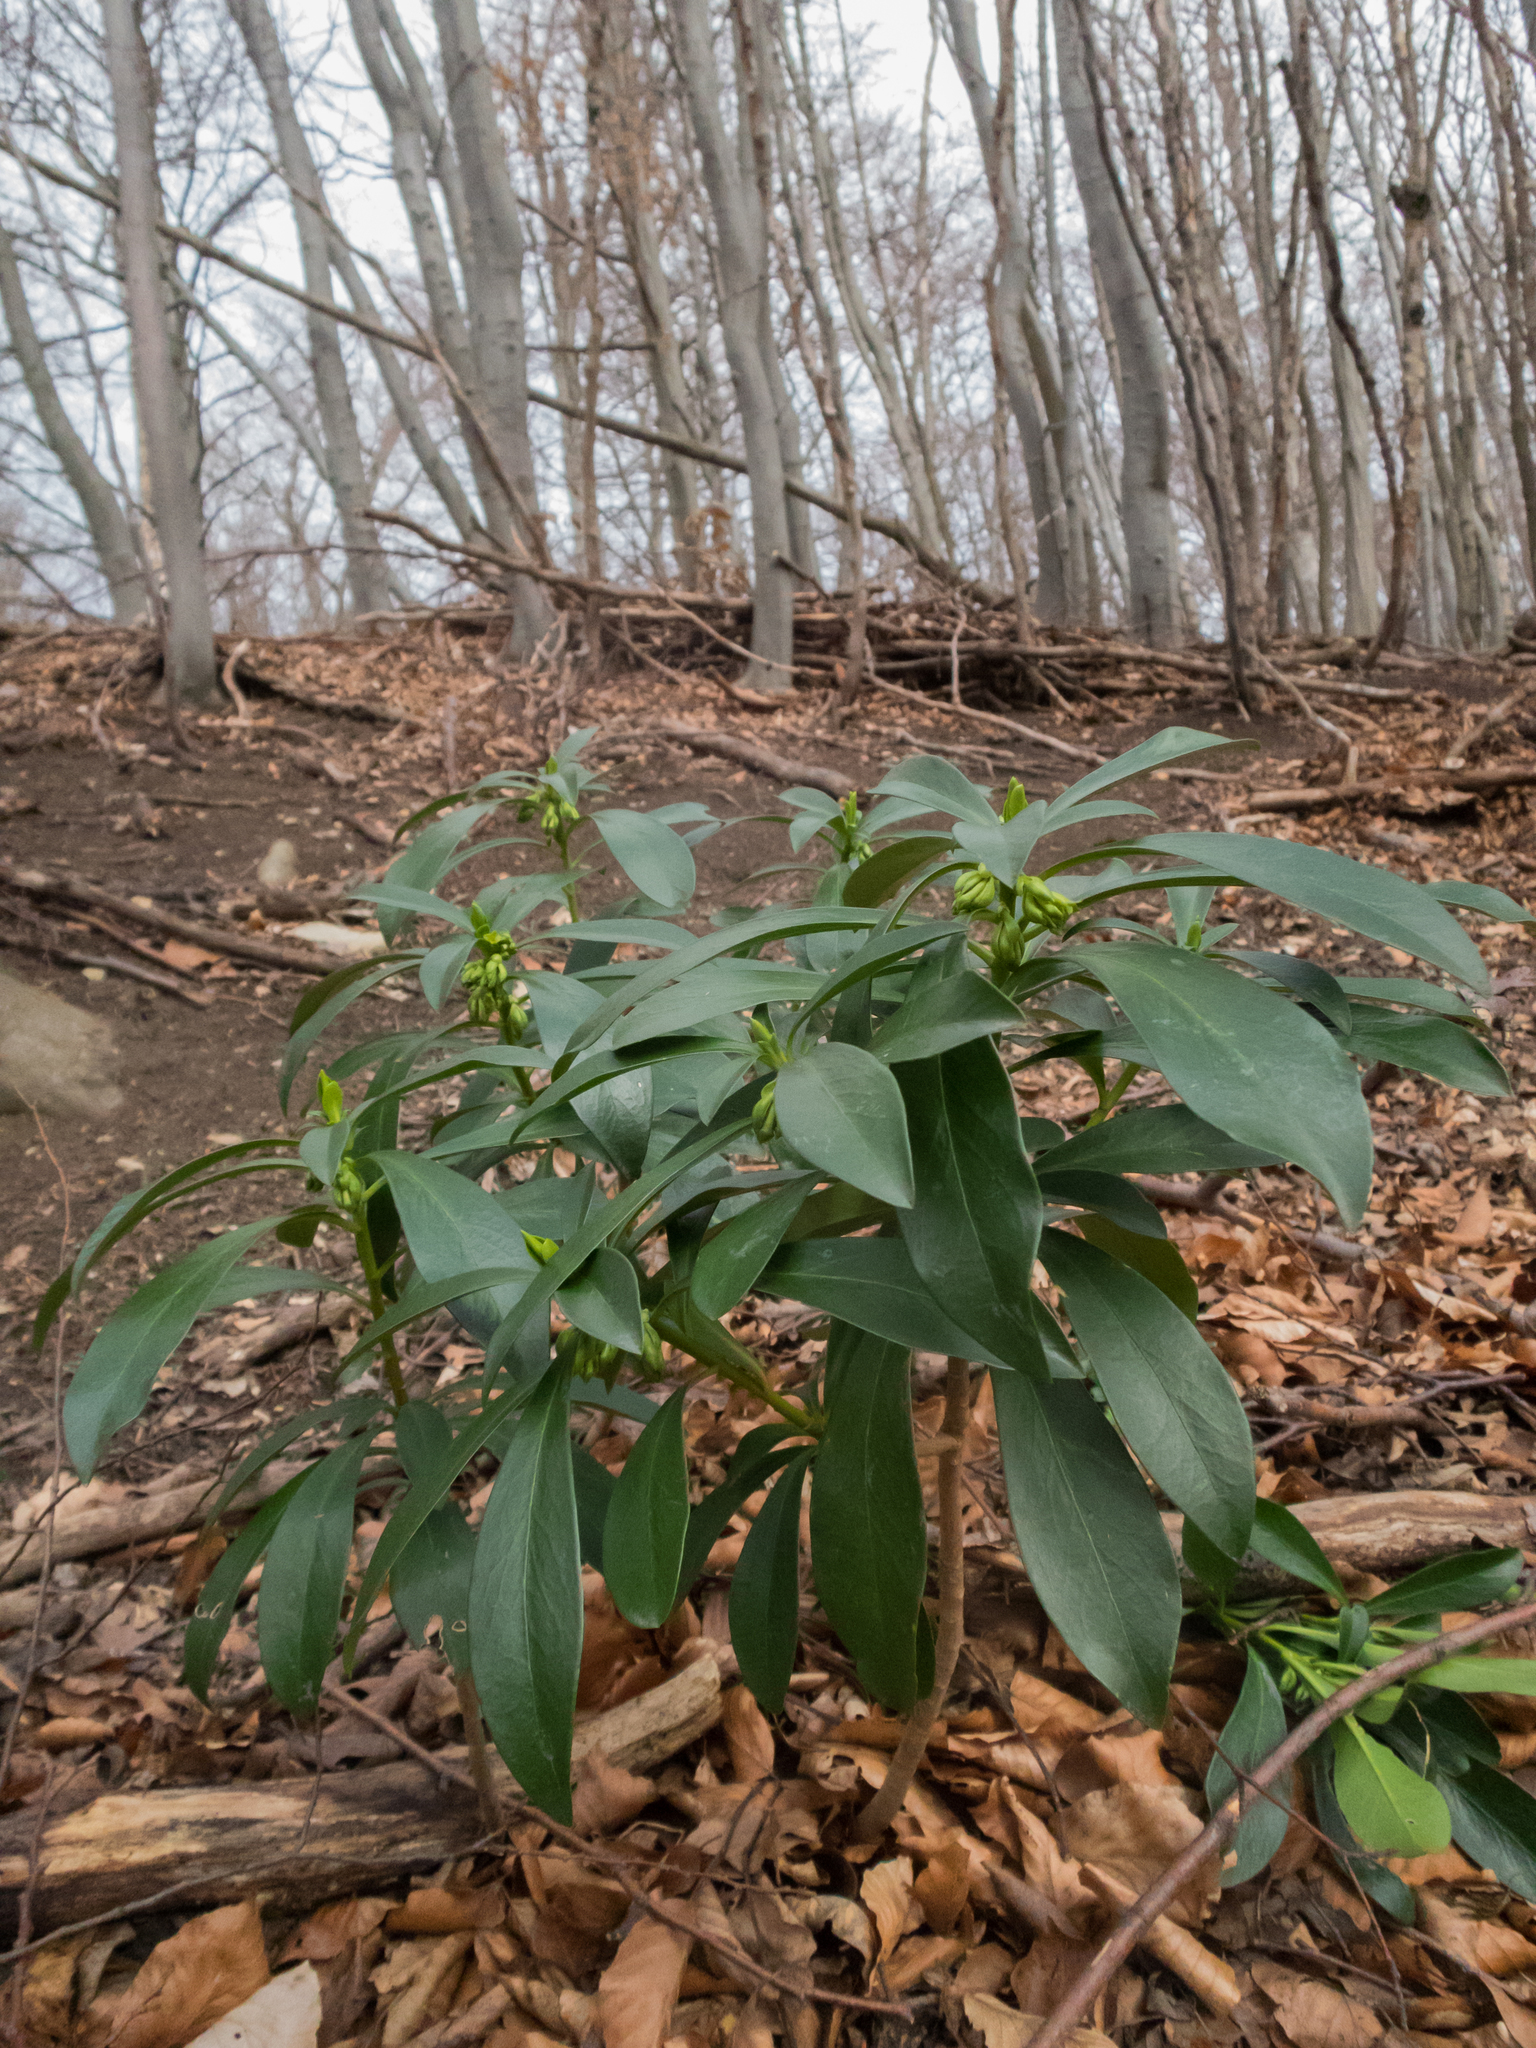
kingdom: Plantae
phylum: Tracheophyta
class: Magnoliopsida
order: Malvales
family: Thymelaeaceae
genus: Daphne
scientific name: Daphne laureola
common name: Spurge-laurel
